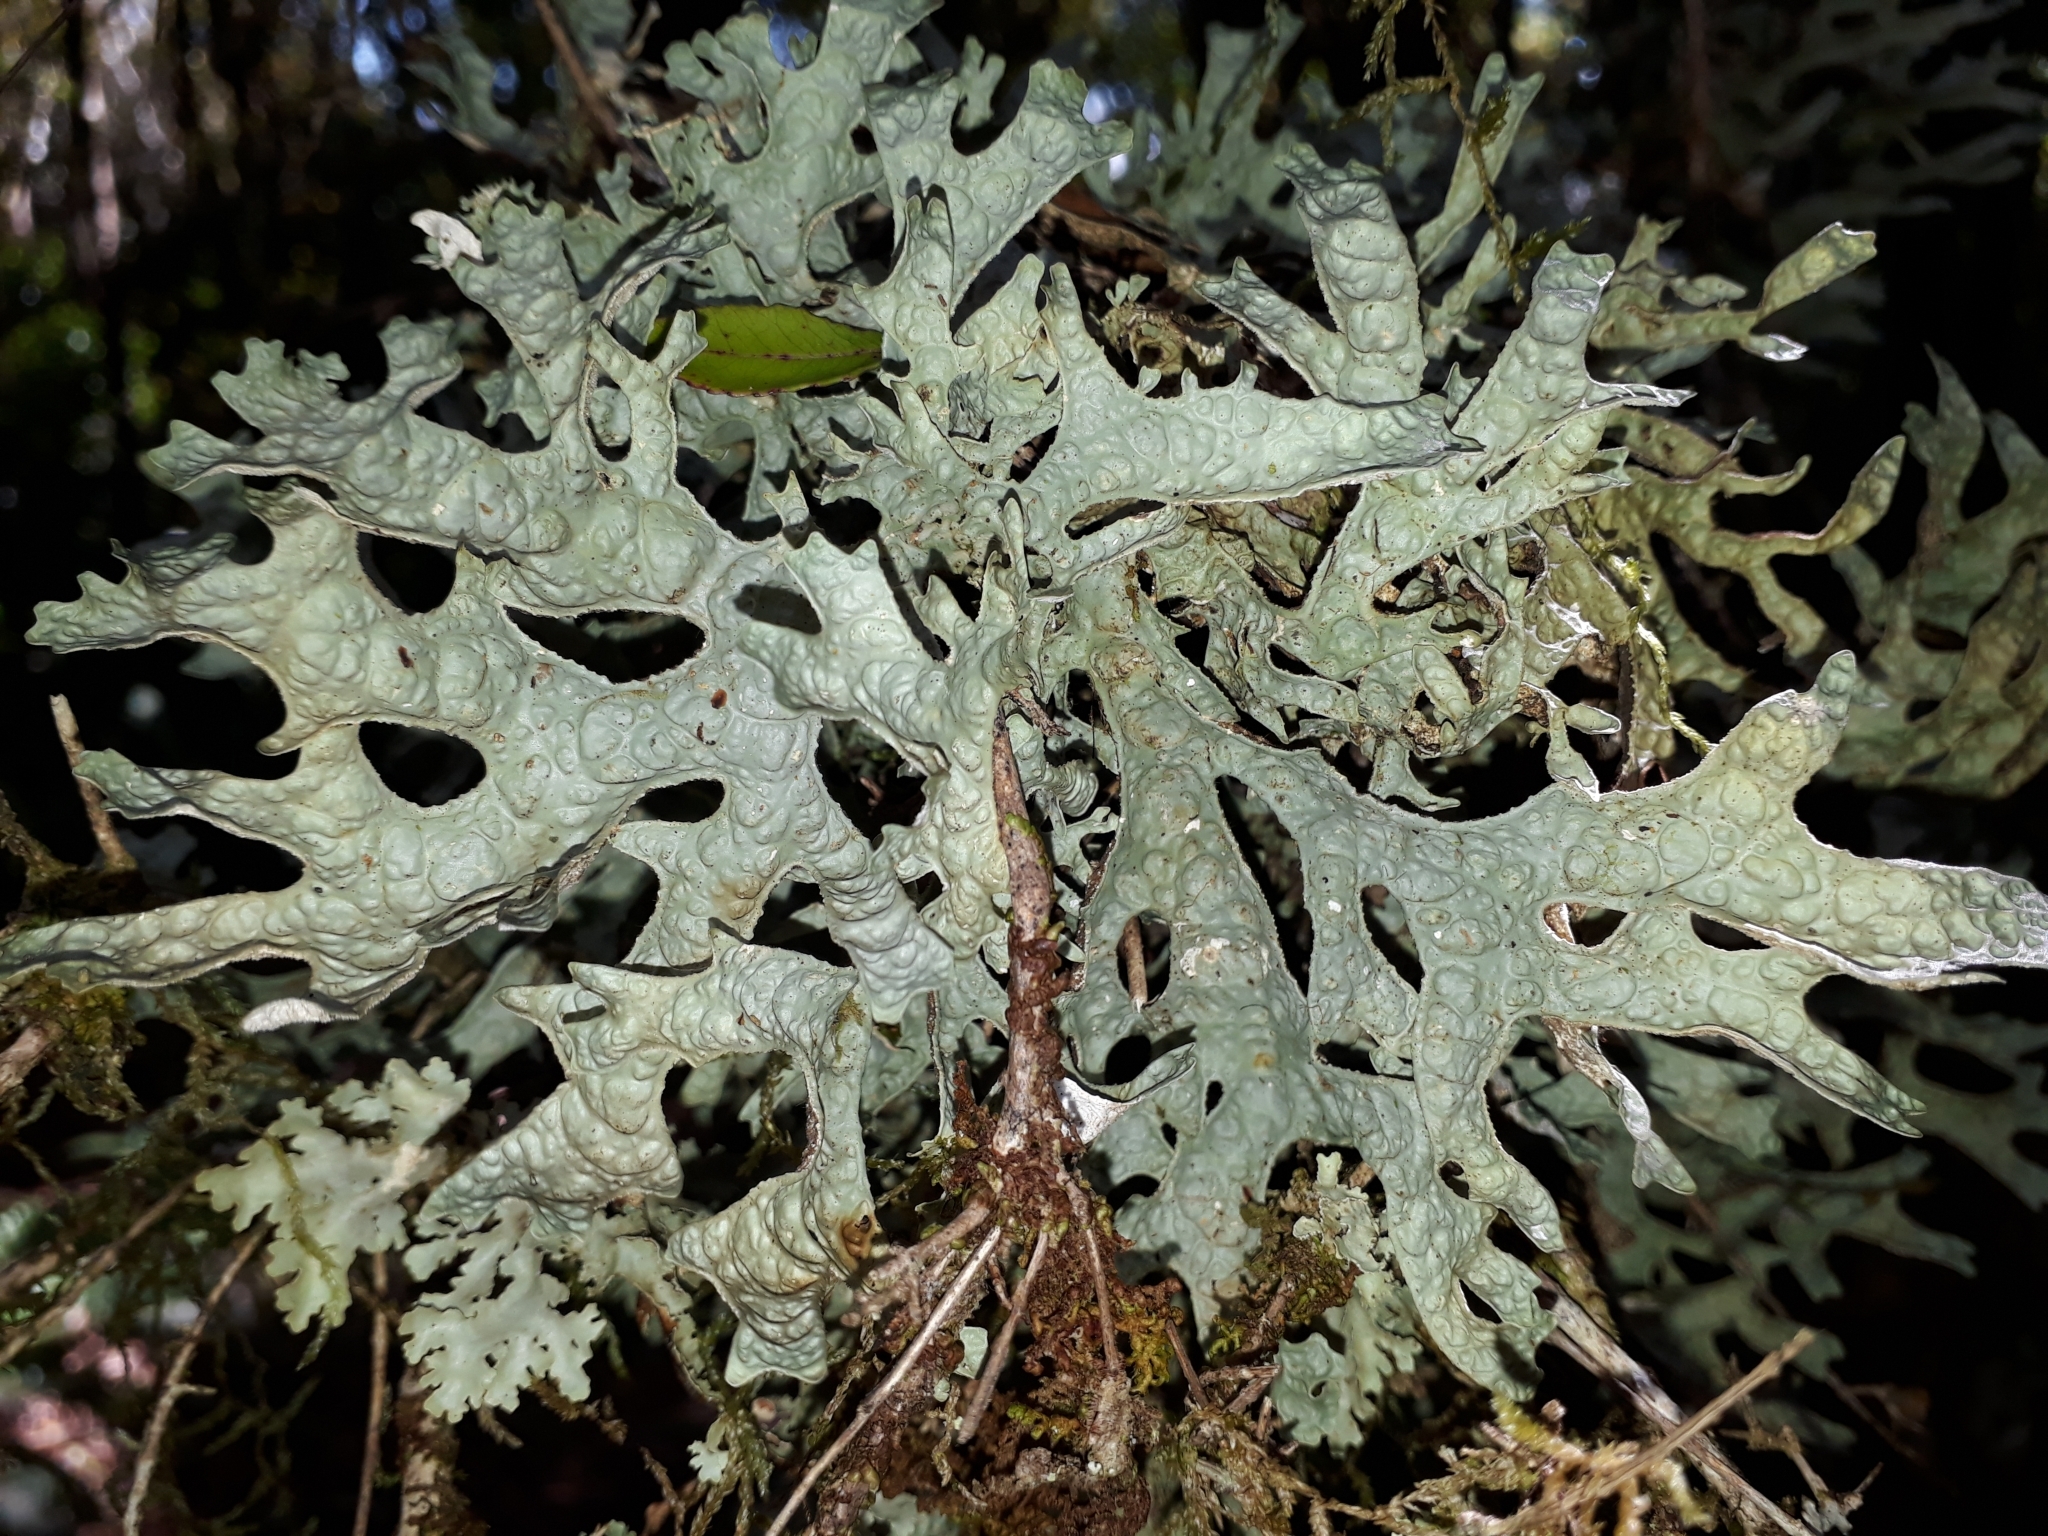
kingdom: Fungi
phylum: Ascomycota
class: Lecanoromycetes
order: Peltigerales
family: Lobariaceae
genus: Pseudocyphellaria
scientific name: Pseudocyphellaria rufovirescens
